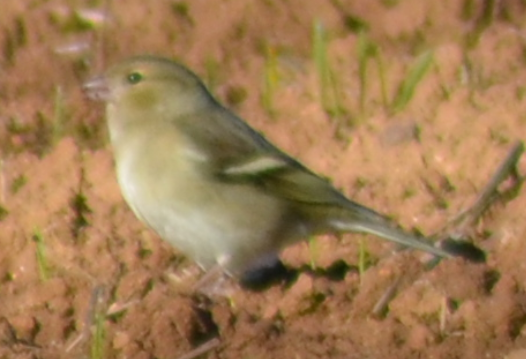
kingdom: Animalia
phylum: Chordata
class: Aves
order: Passeriformes
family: Fringillidae
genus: Fringilla
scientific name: Fringilla coelebs
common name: Common chaffinch
